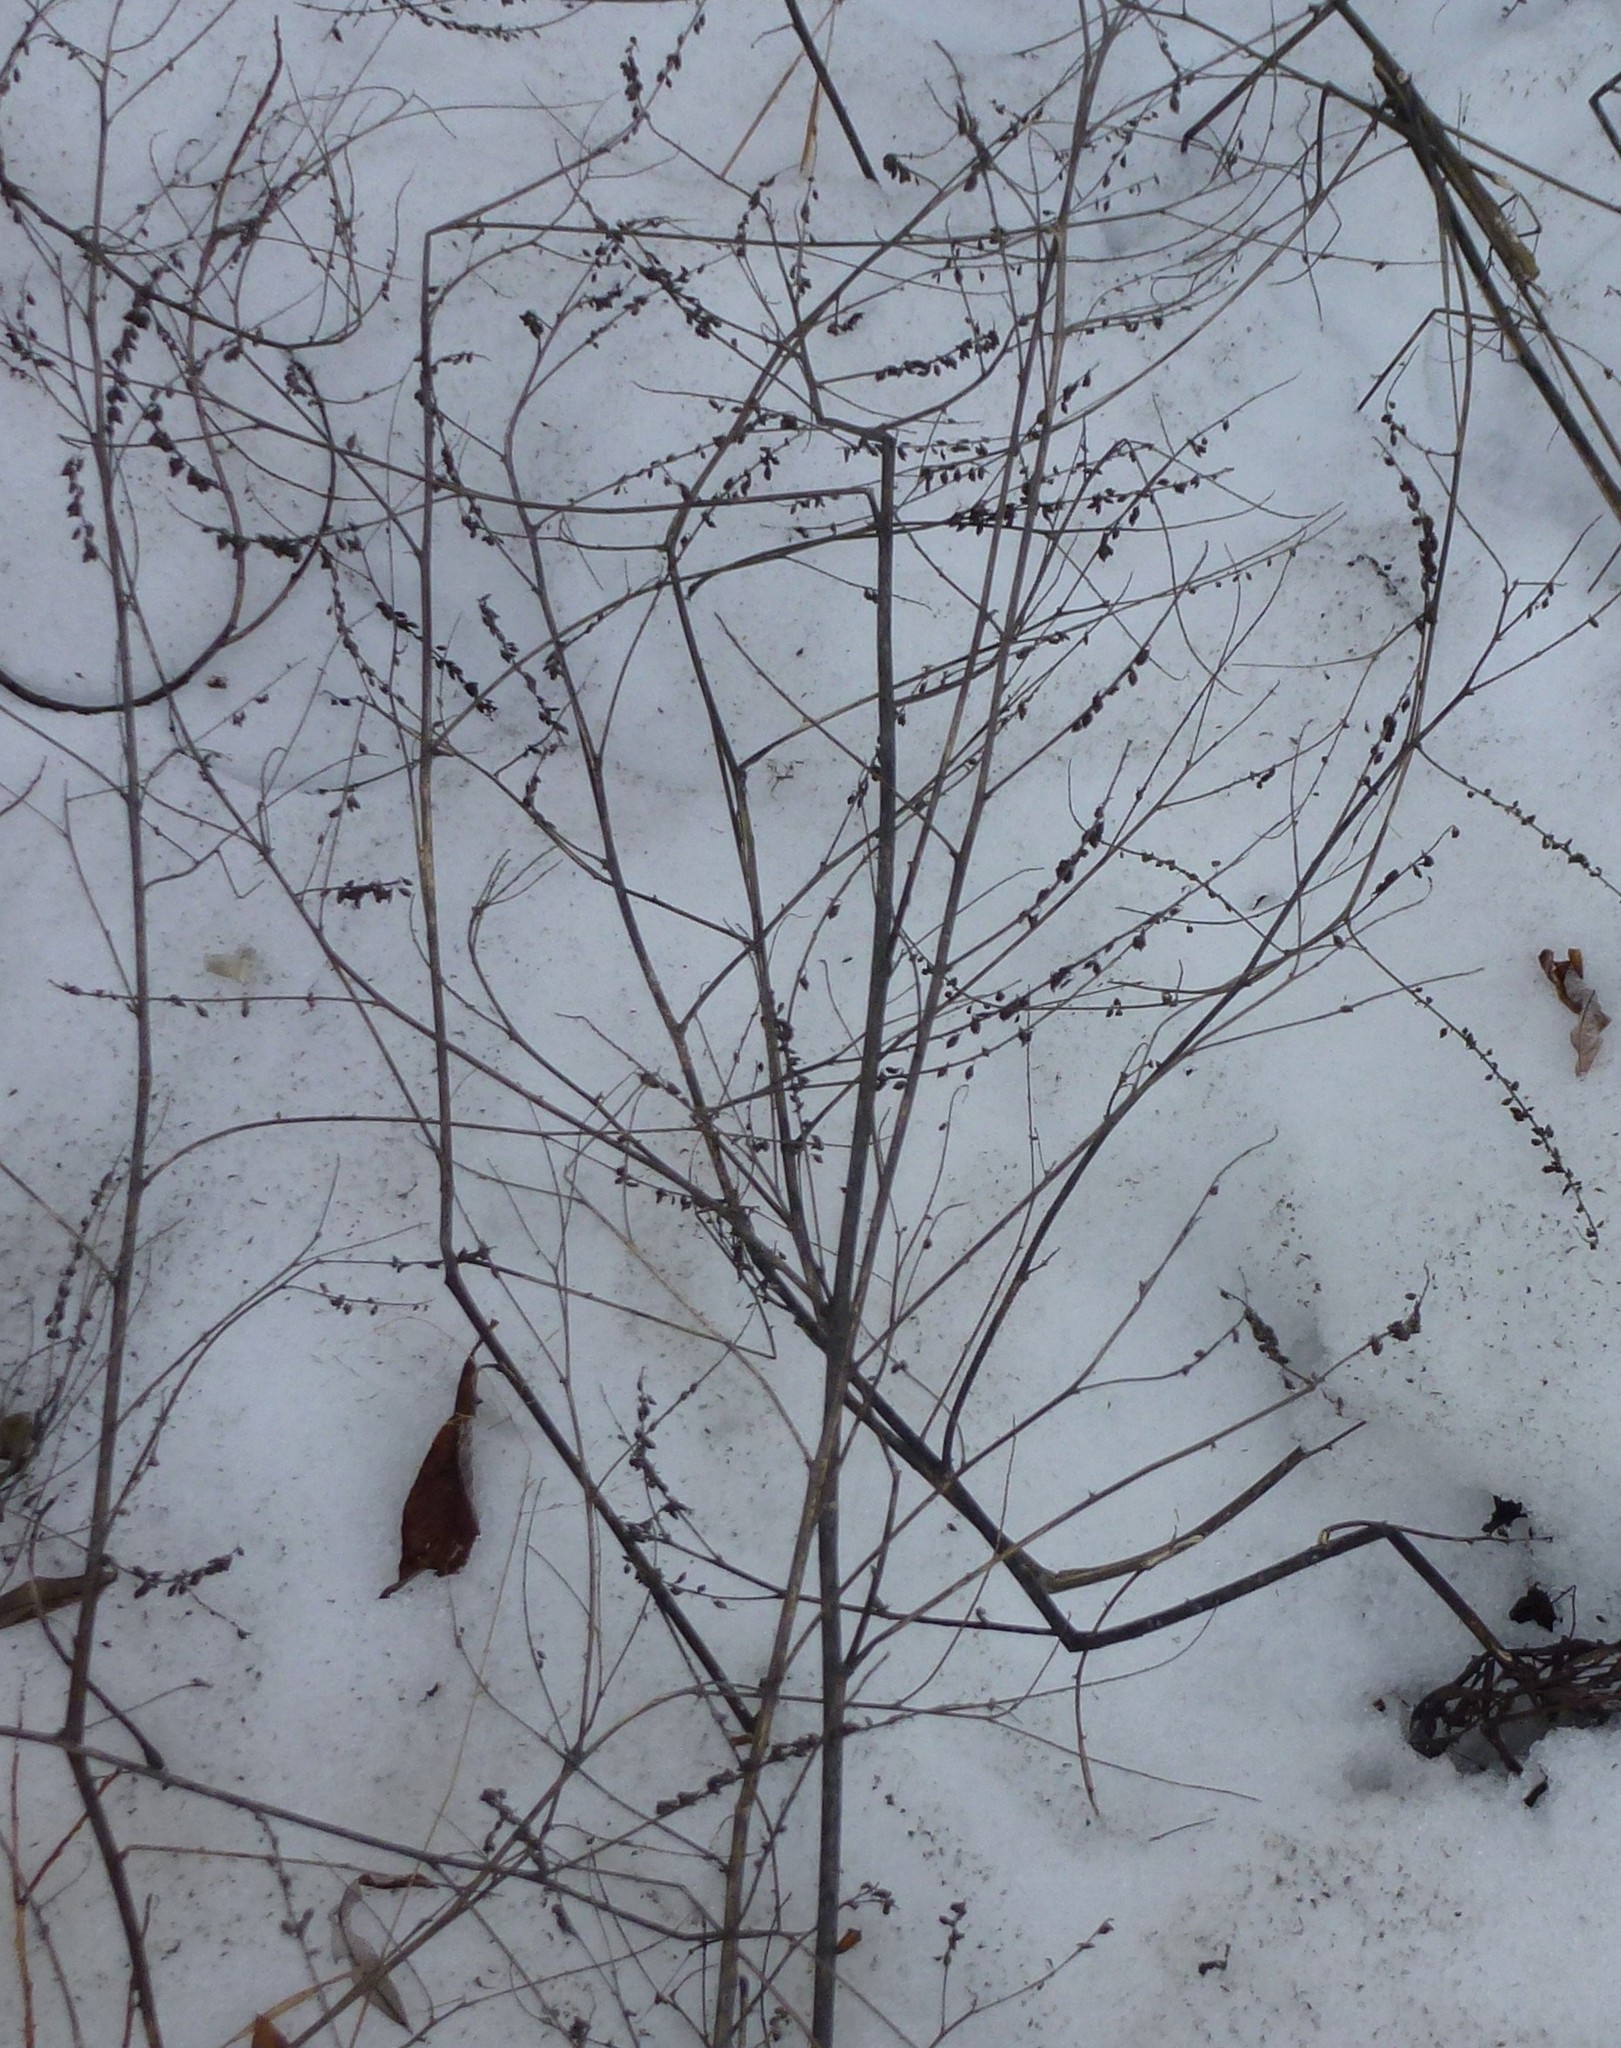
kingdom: Plantae
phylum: Tracheophyta
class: Magnoliopsida
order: Fabales
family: Fabaceae
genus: Melilotus
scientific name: Melilotus albus
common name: White melilot
